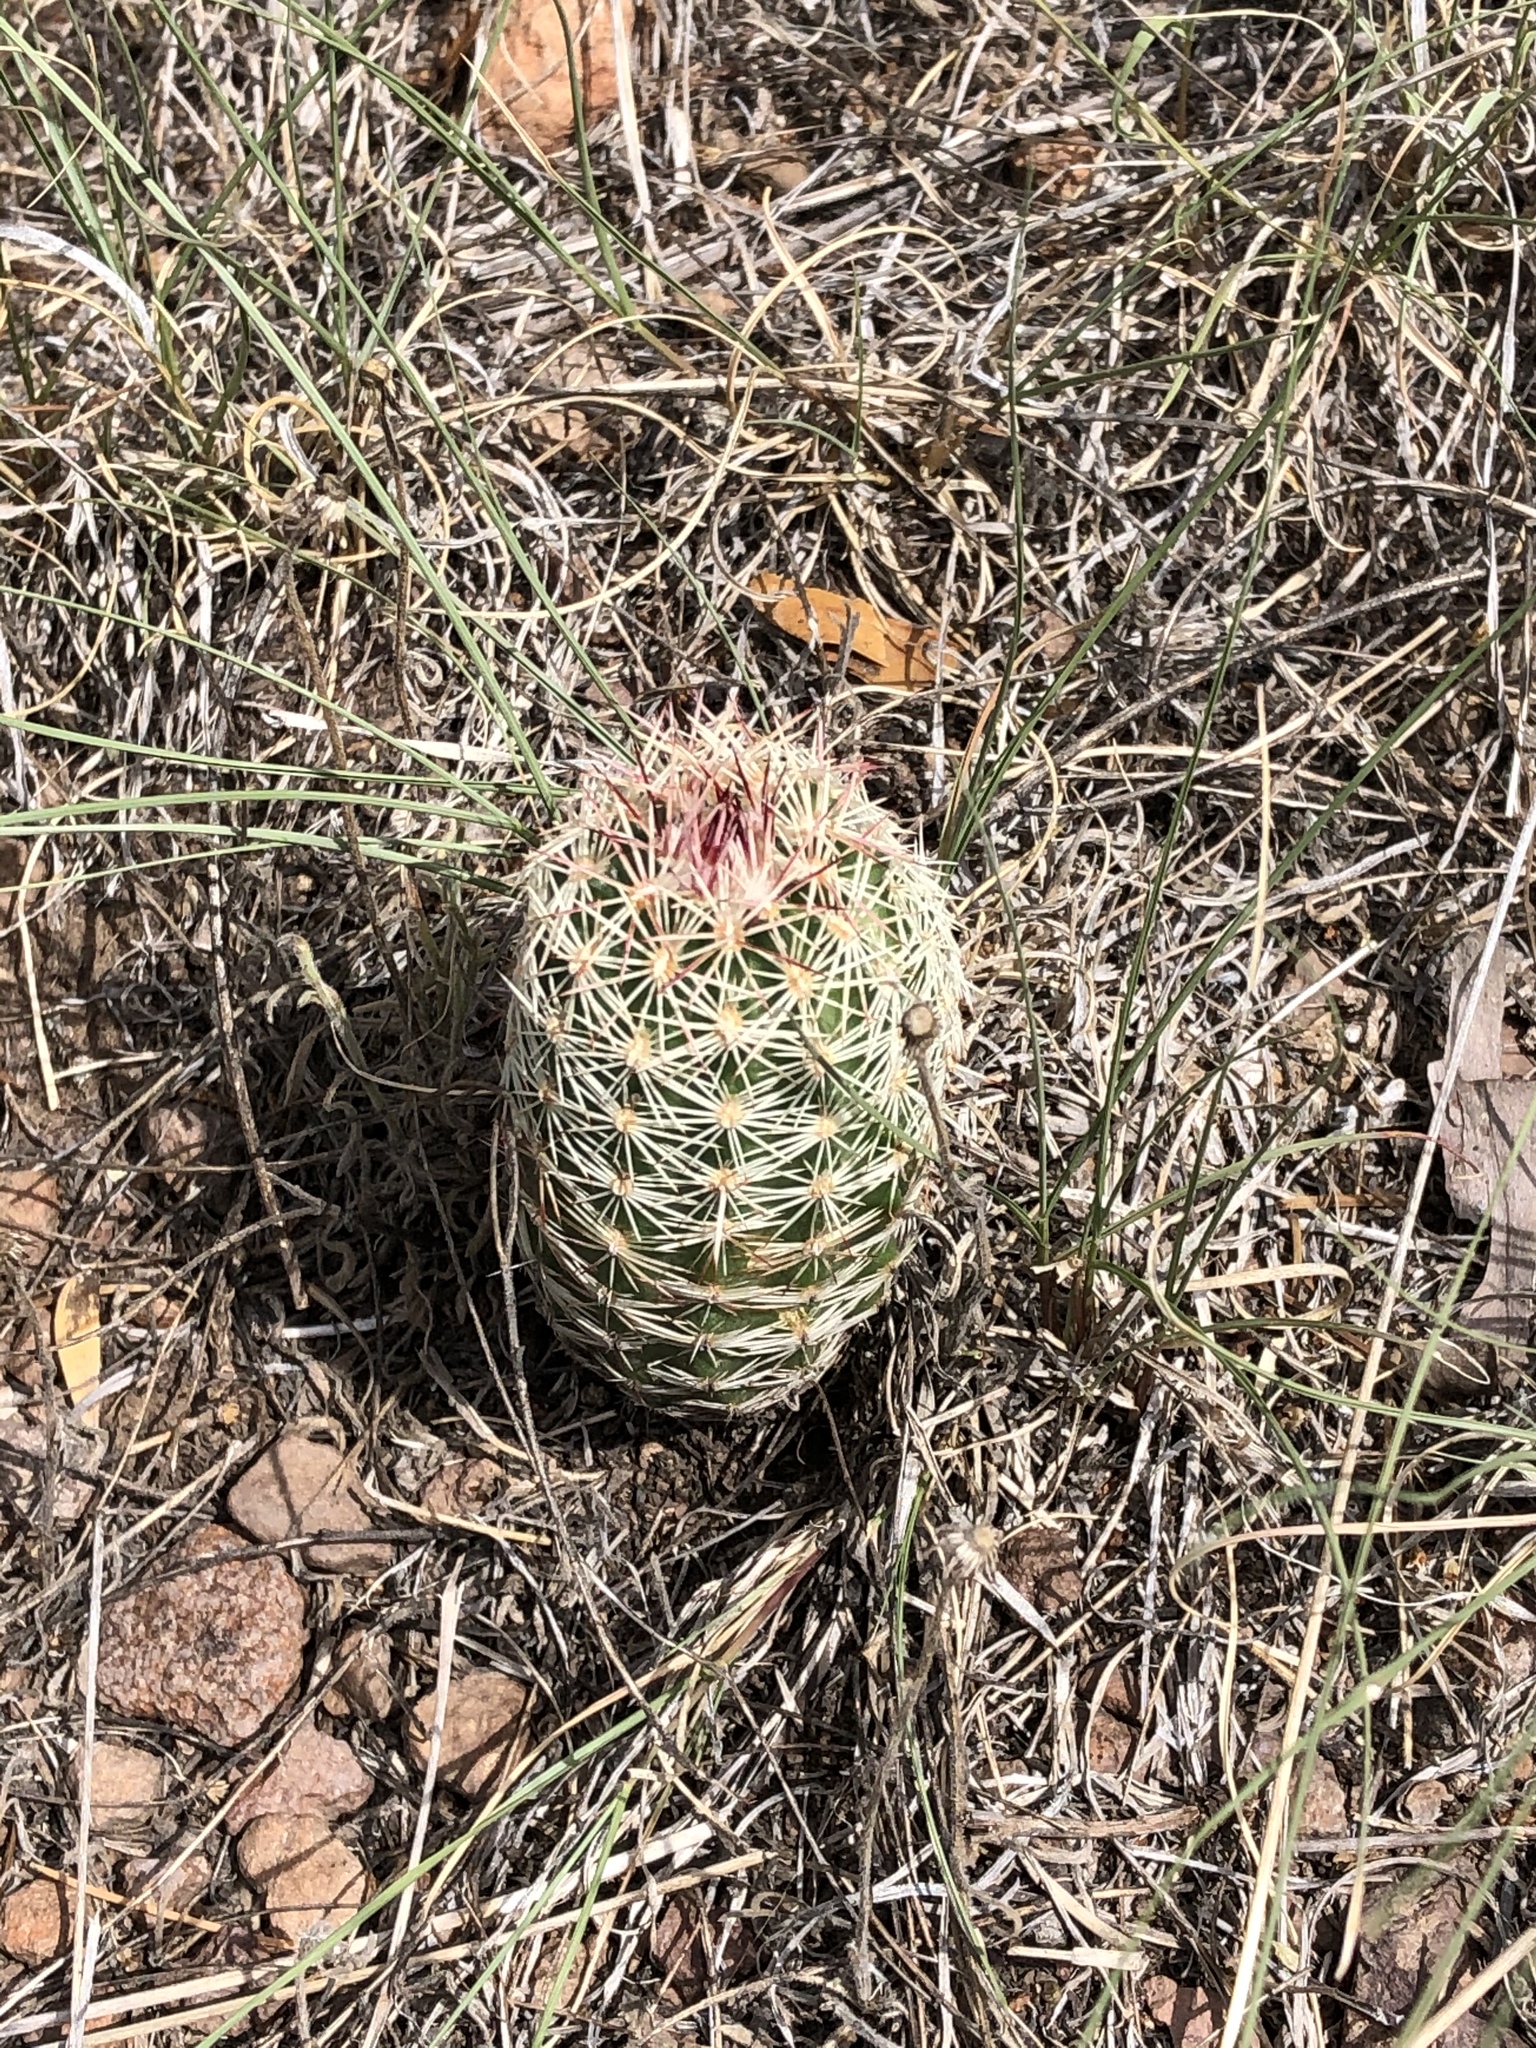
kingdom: Plantae
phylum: Tracheophyta
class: Magnoliopsida
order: Caryophyllales
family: Cactaceae
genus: Echinocereus
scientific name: Echinocereus viridiflorus
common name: Nylon hedgehog cactus
